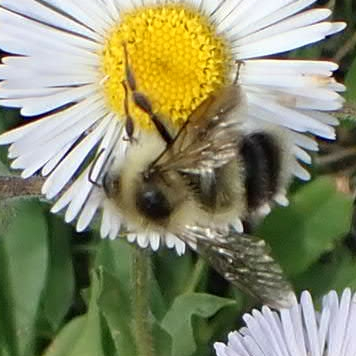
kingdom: Animalia
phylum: Arthropoda
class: Insecta
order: Hymenoptera
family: Apidae
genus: Pyrobombus
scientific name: Pyrobombus
